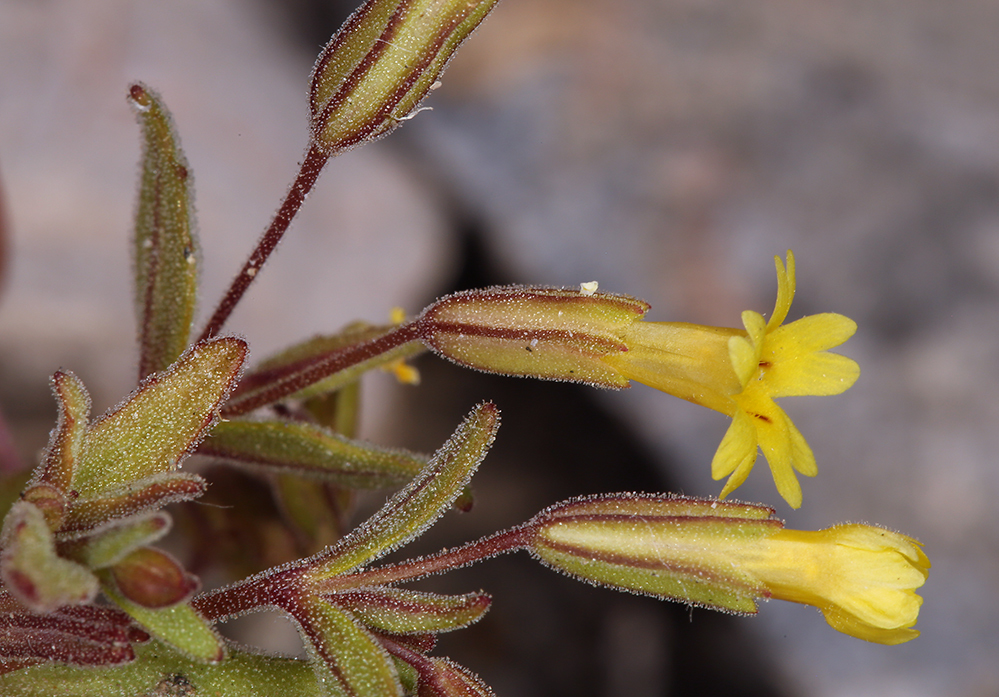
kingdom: Plantae
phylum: Tracheophyta
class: Magnoliopsida
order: Lamiales
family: Phrymaceae
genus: Erythranthe
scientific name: Erythranthe calcicola
